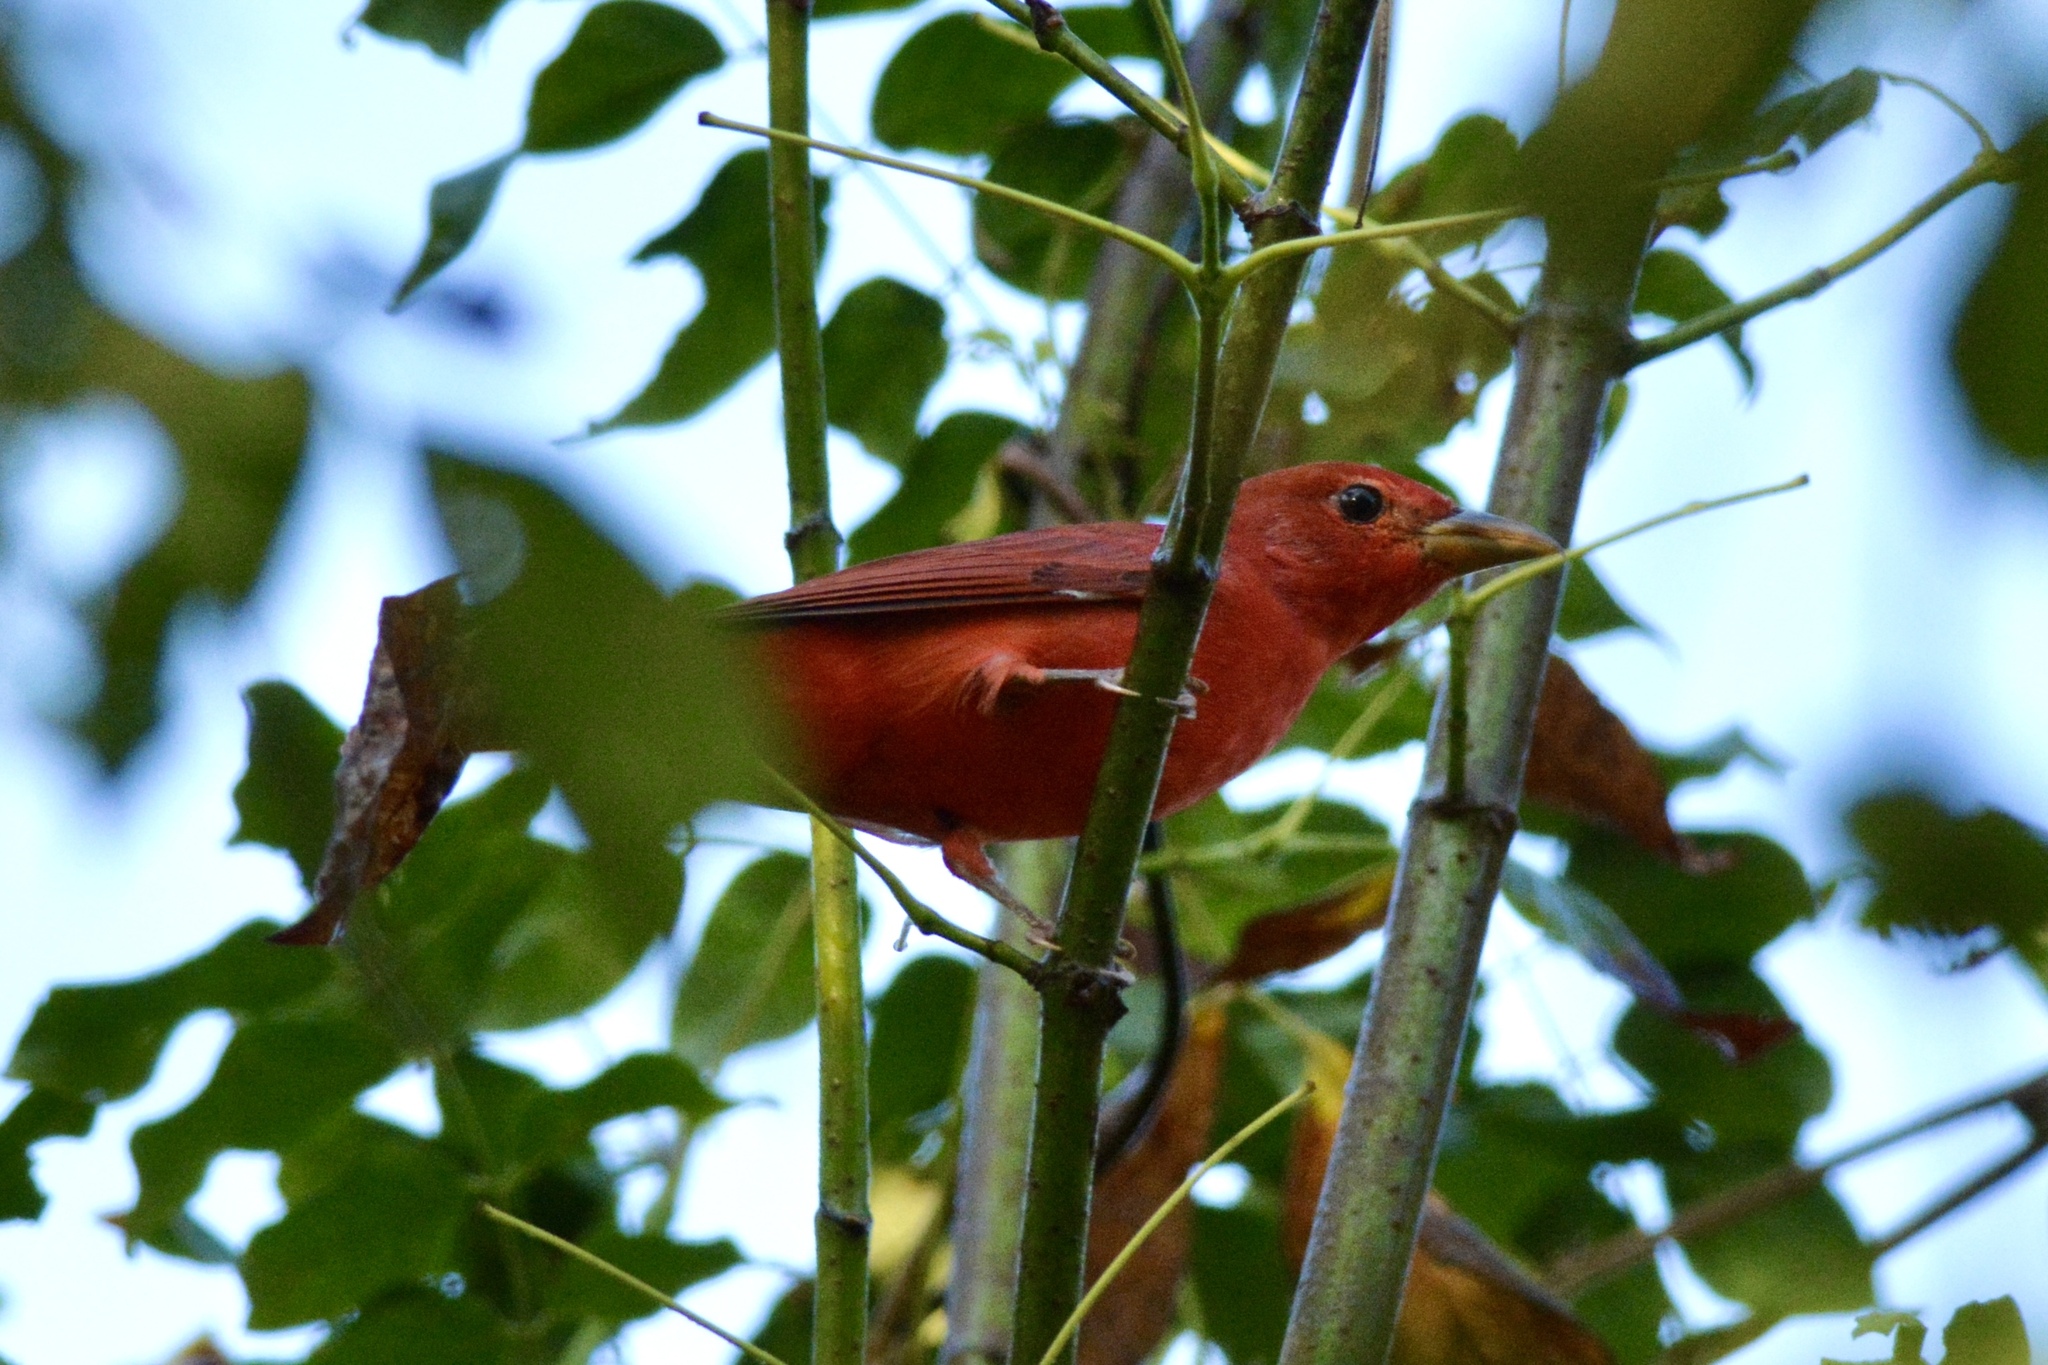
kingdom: Animalia
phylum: Chordata
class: Aves
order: Passeriformes
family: Cardinalidae
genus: Piranga
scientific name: Piranga rubra
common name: Summer tanager
